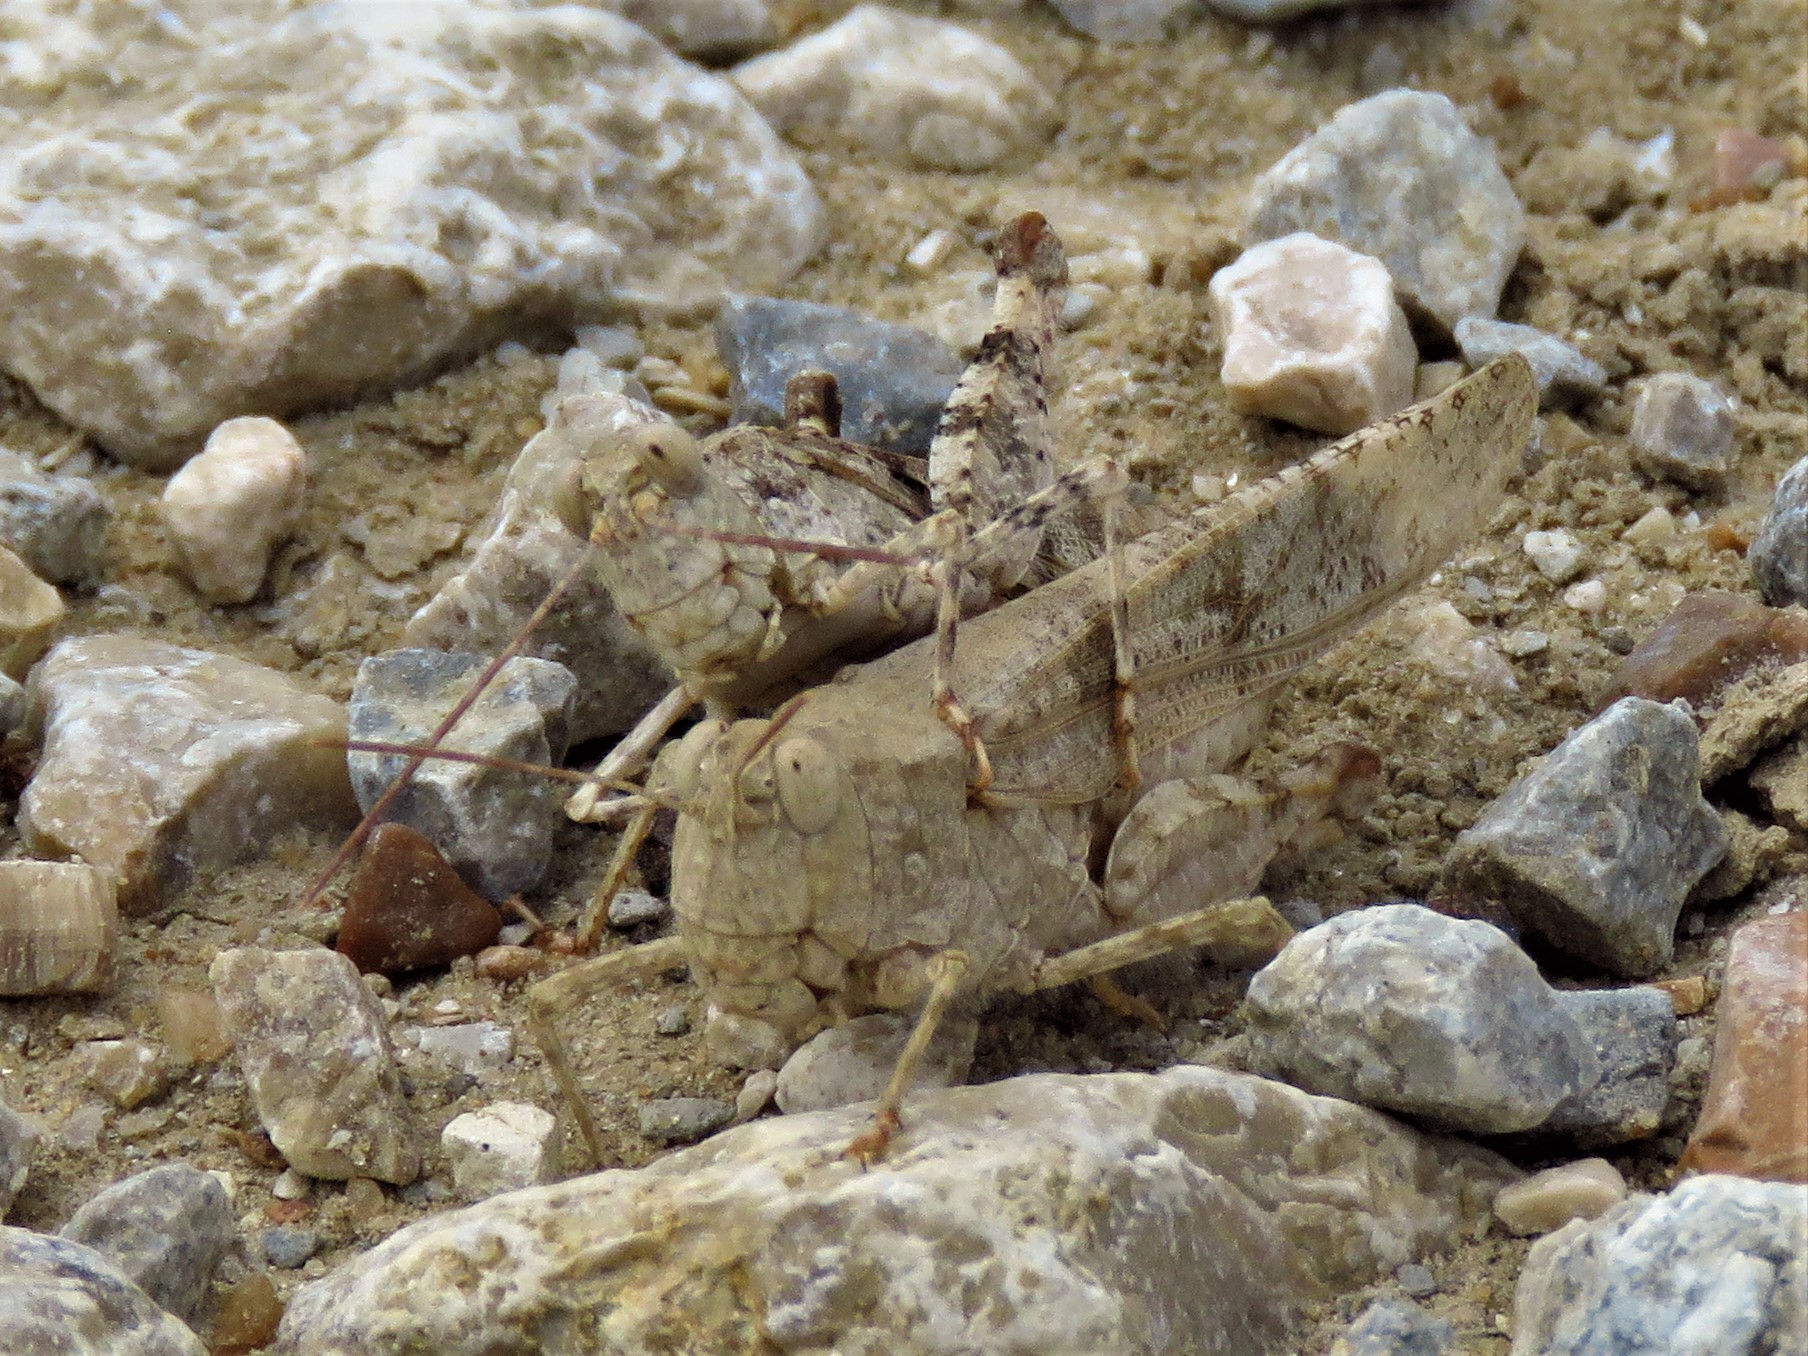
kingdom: Animalia
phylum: Arthropoda
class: Insecta
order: Orthoptera
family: Acrididae
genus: Trimerotropis
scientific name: Trimerotropis maritima
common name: Seaside locust
